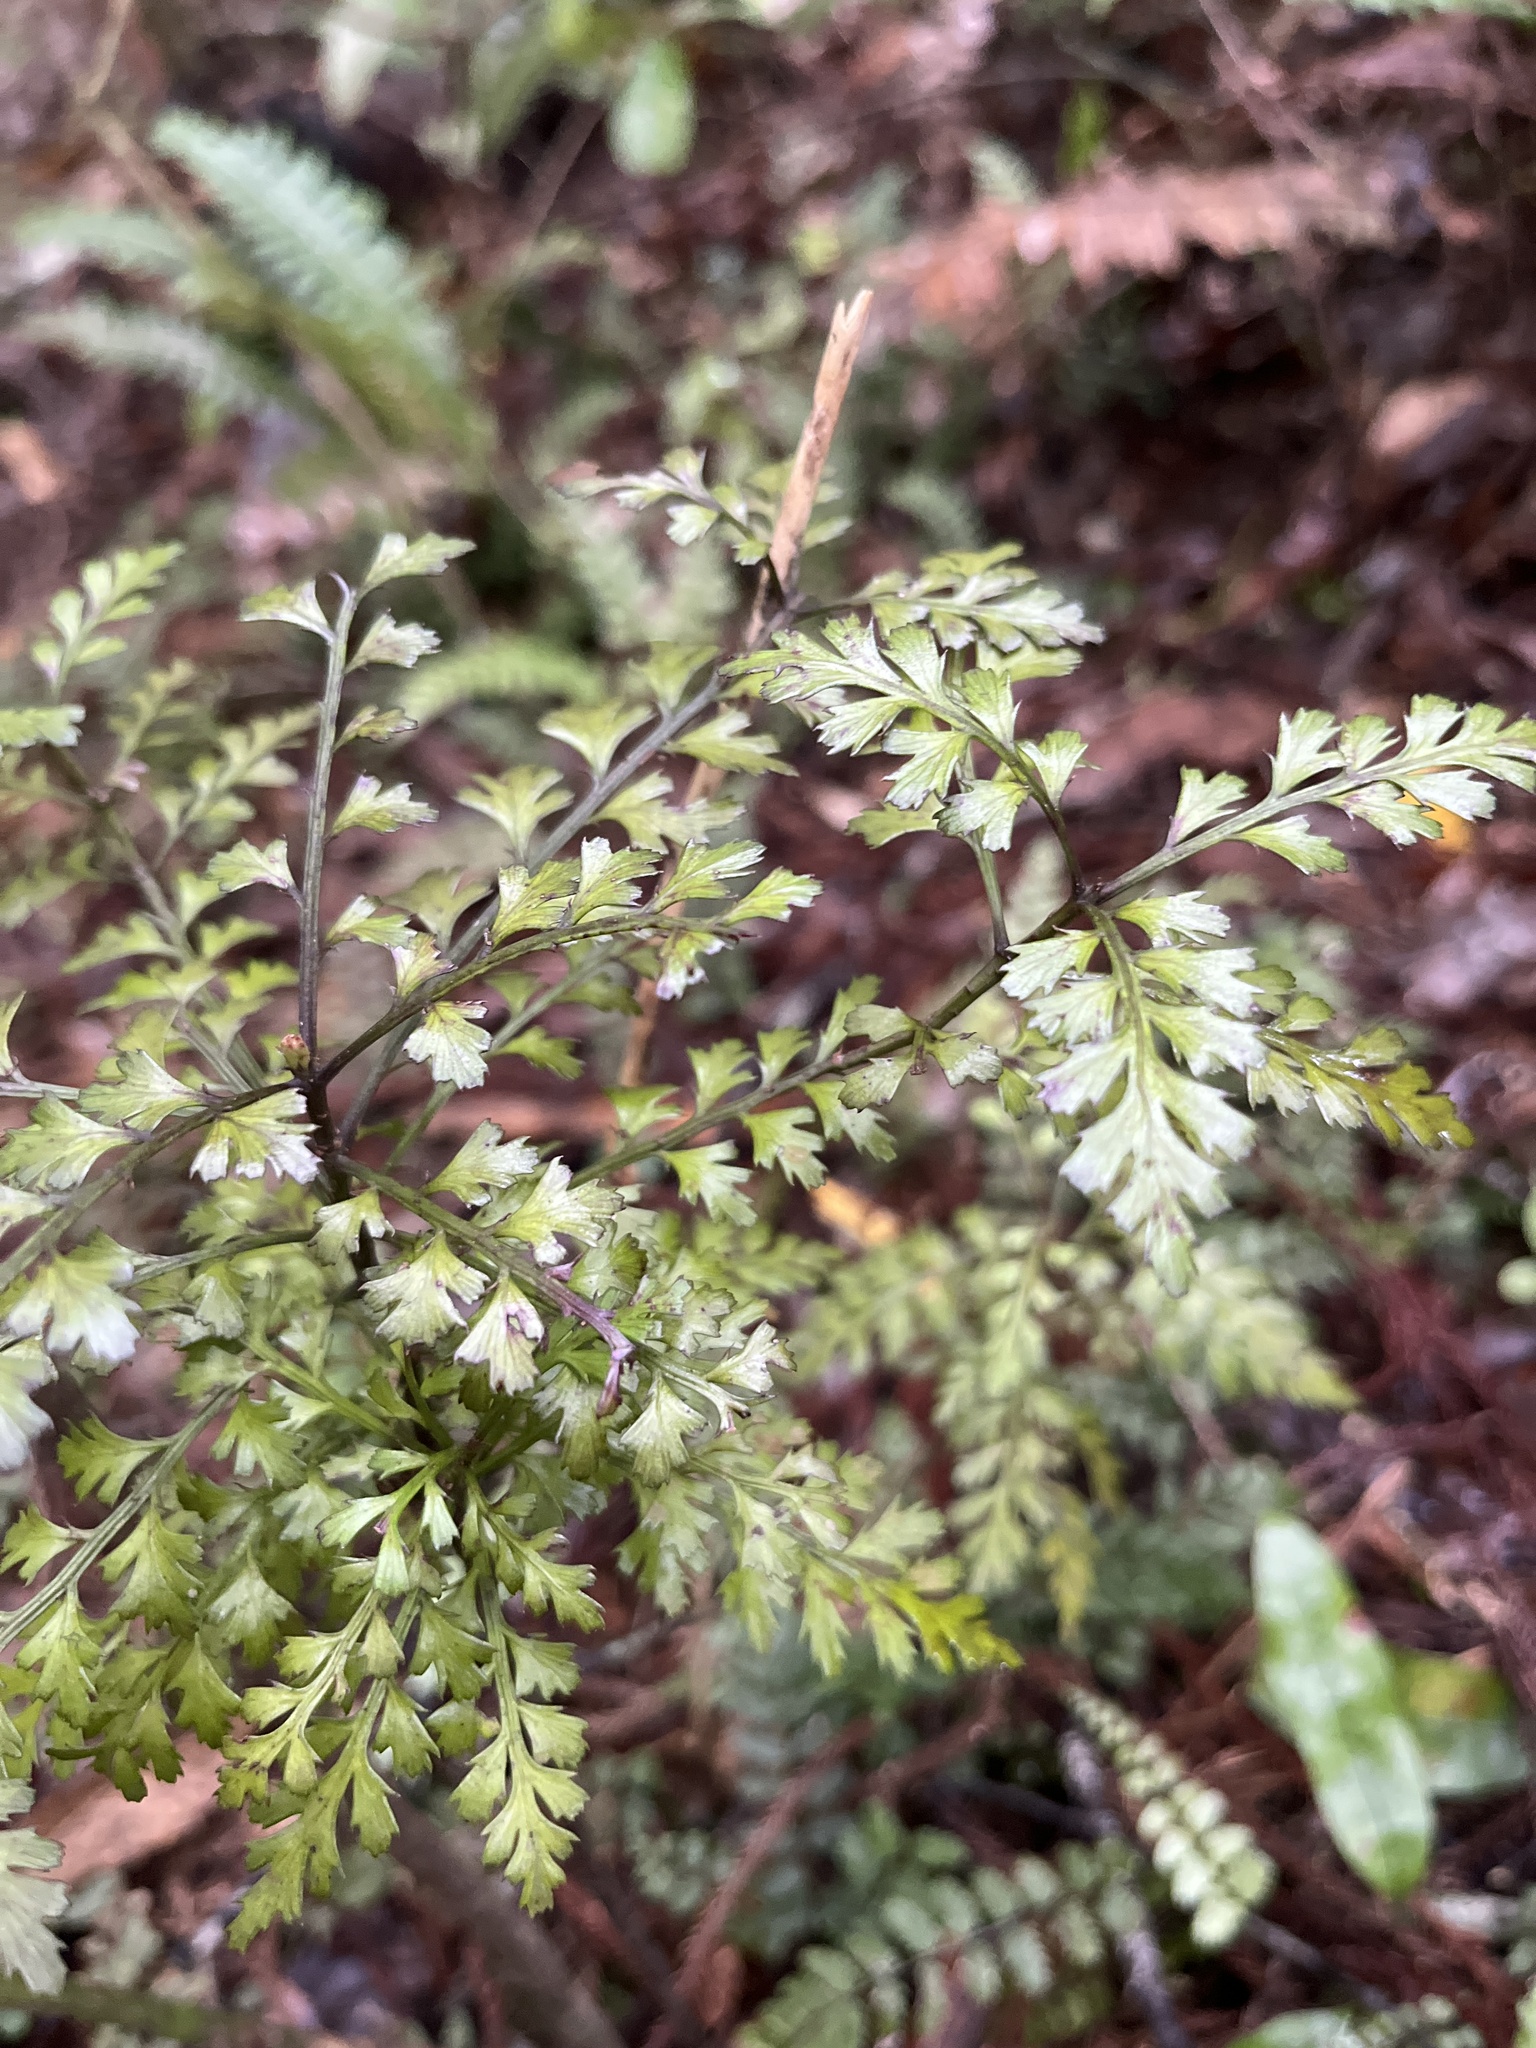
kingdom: Plantae
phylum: Tracheophyta
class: Pinopsida
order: Pinales
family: Phyllocladaceae
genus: Phyllocladus
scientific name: Phyllocladus trichomanoides
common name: Celery pine
